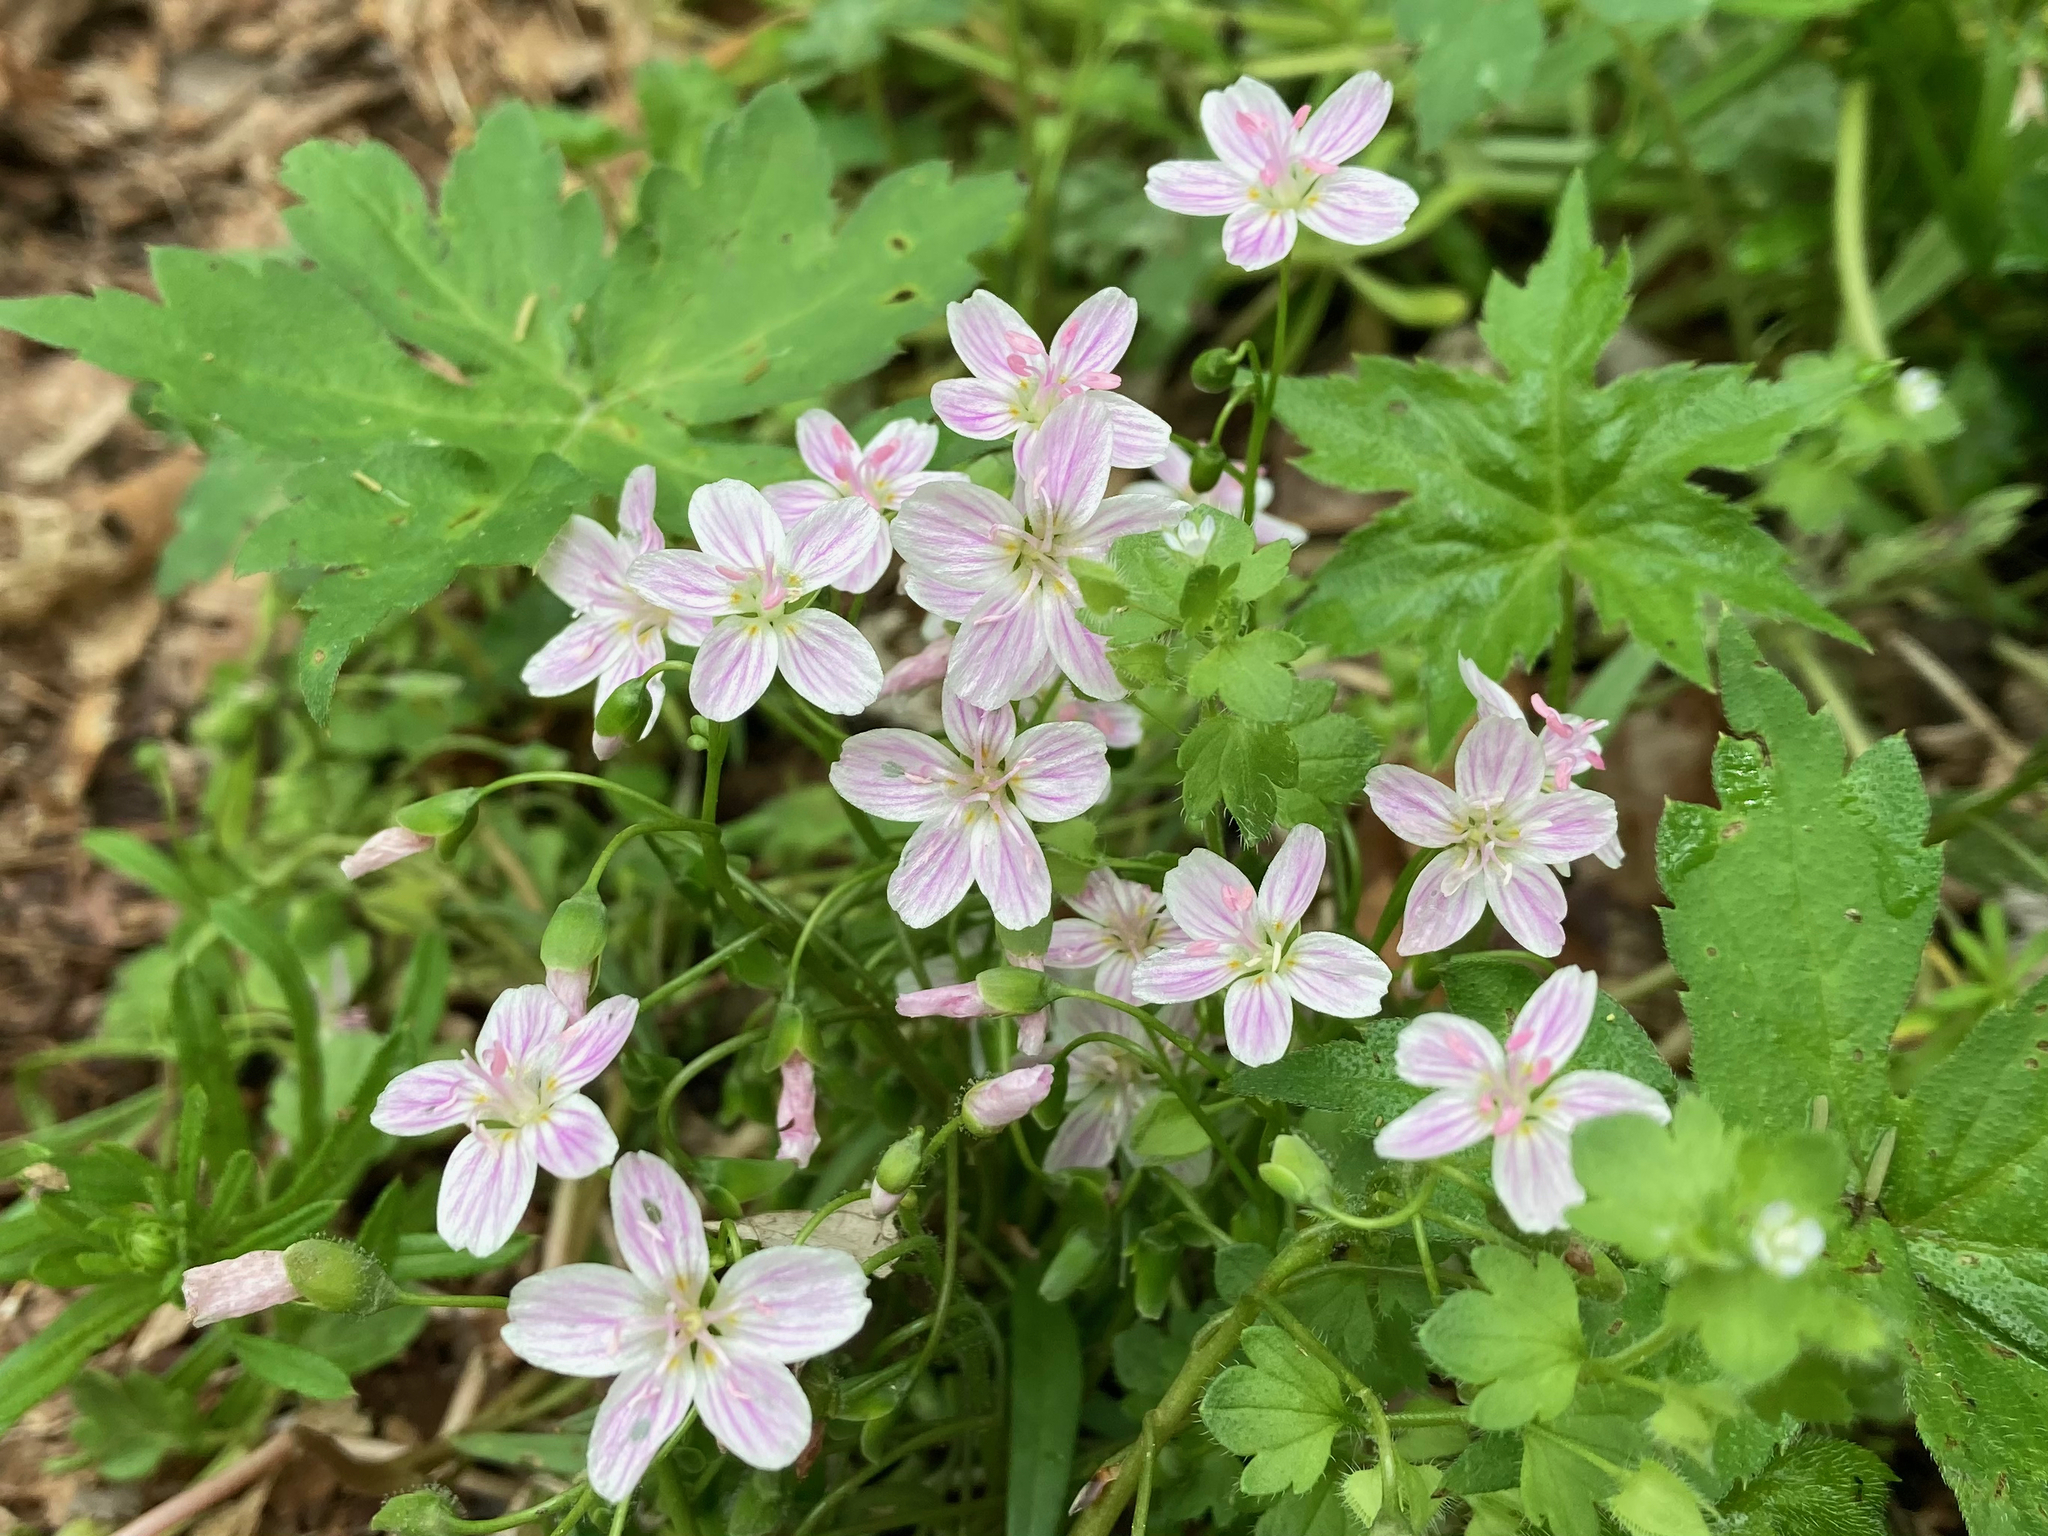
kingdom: Plantae
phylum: Tracheophyta
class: Magnoliopsida
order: Caryophyllales
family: Montiaceae
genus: Claytonia
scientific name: Claytonia virginica
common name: Virginia springbeauty
